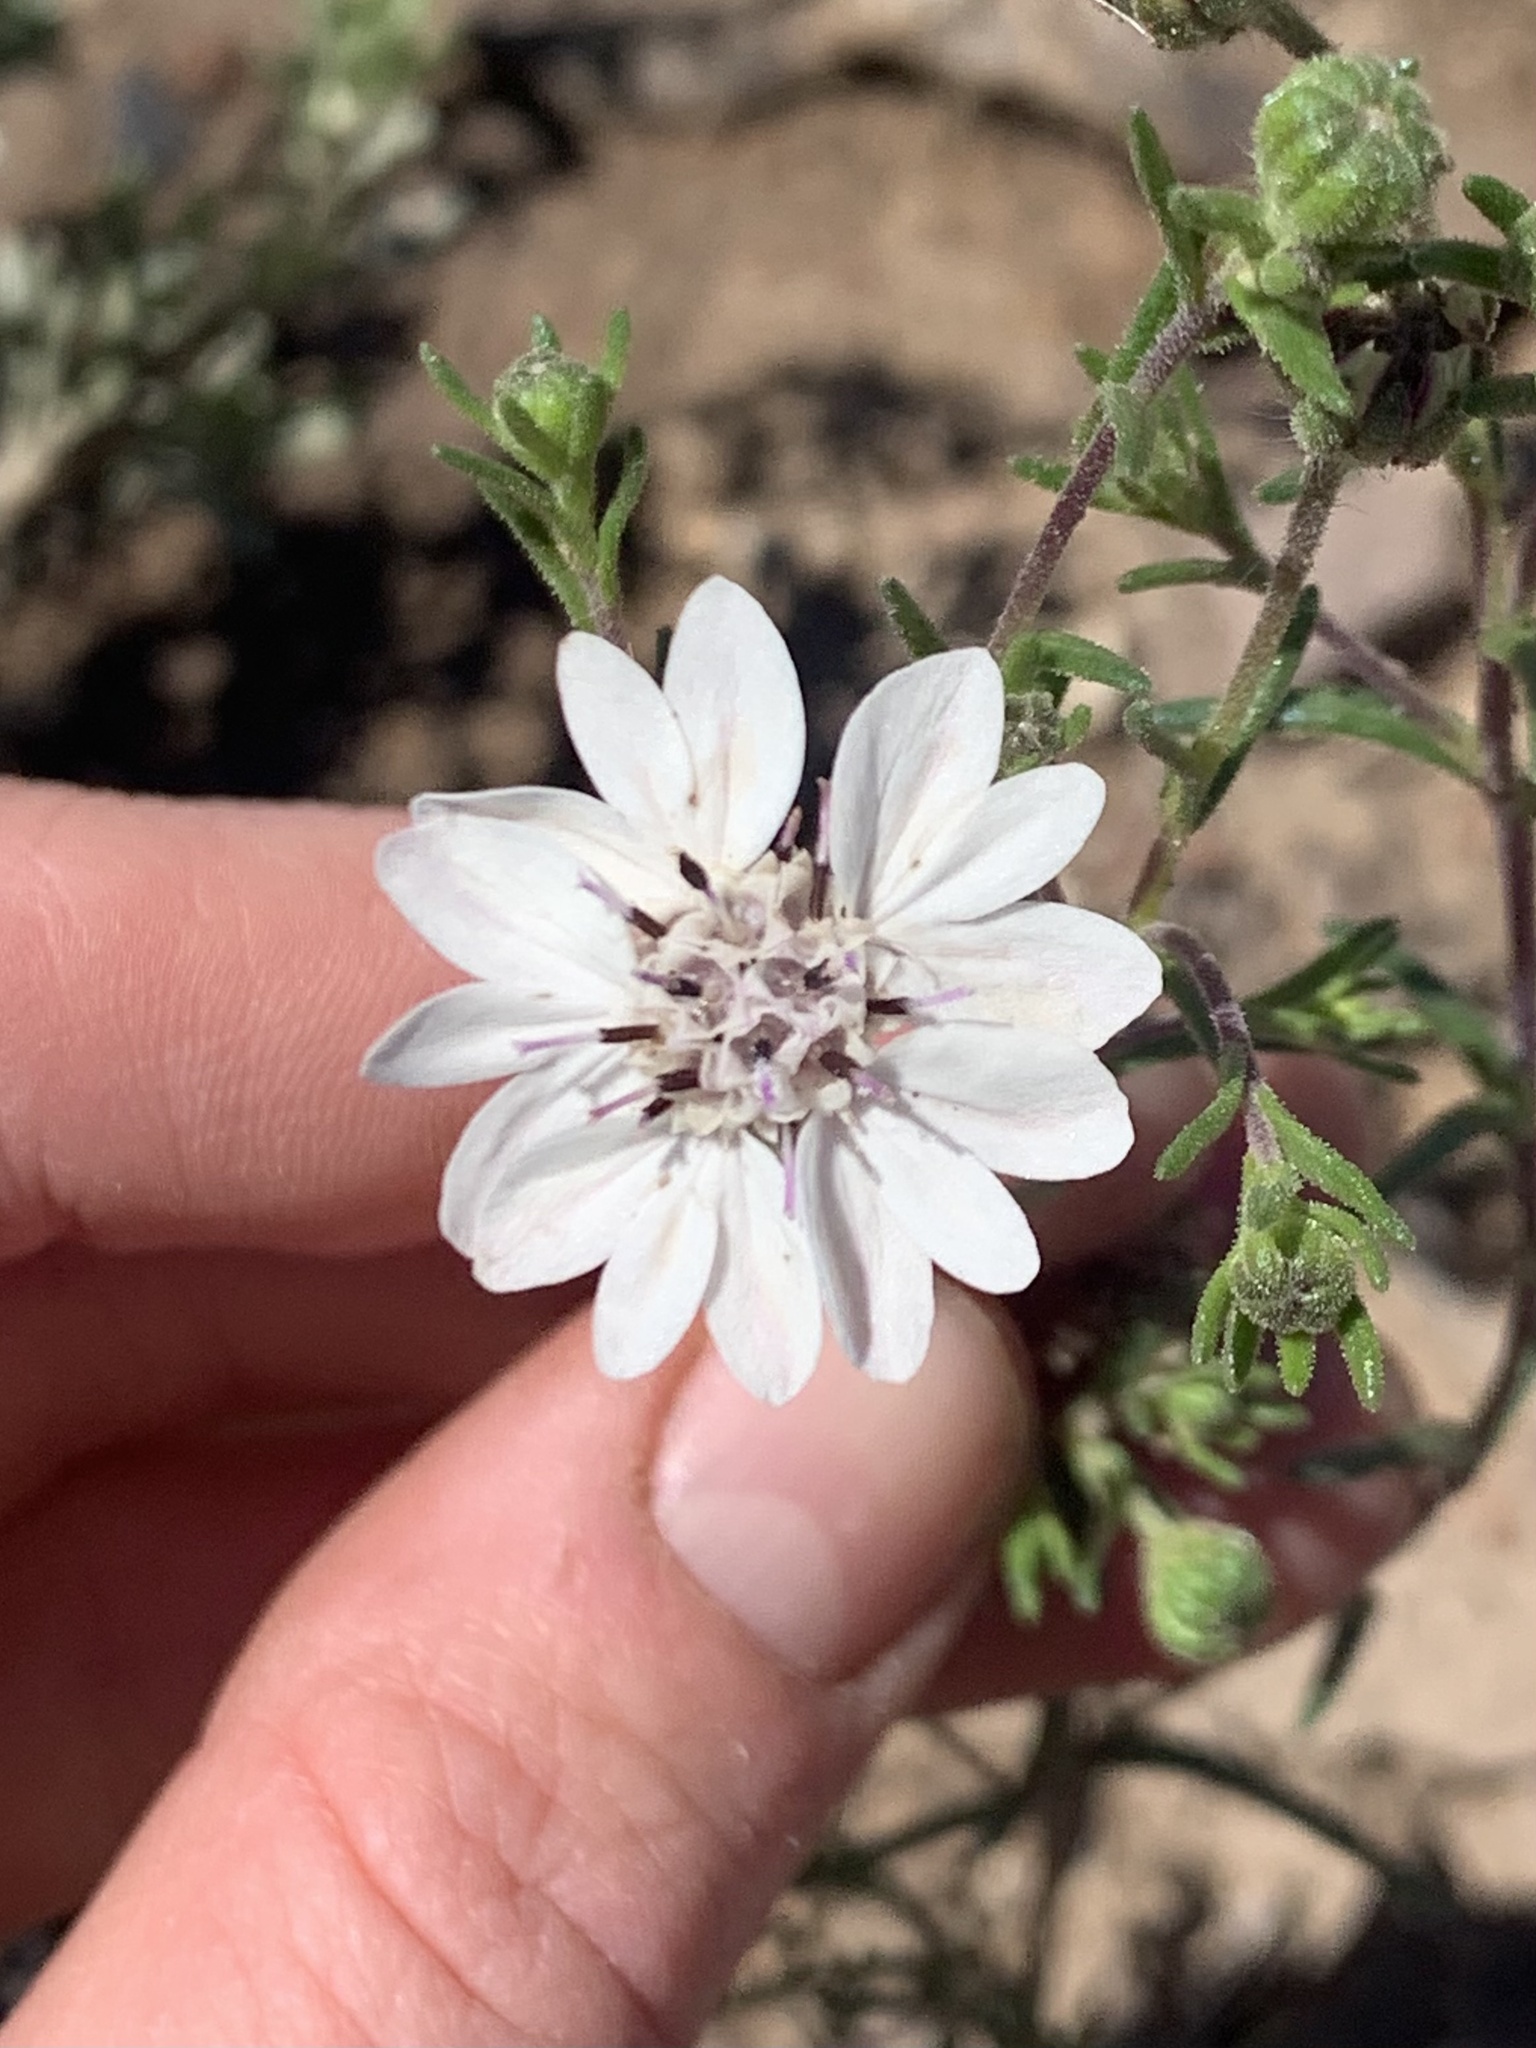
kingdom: Plantae
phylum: Tracheophyta
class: Magnoliopsida
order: Asterales
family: Asteraceae
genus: Blepharipappus
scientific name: Blepharipappus scaber
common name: Rough blepharipappus
